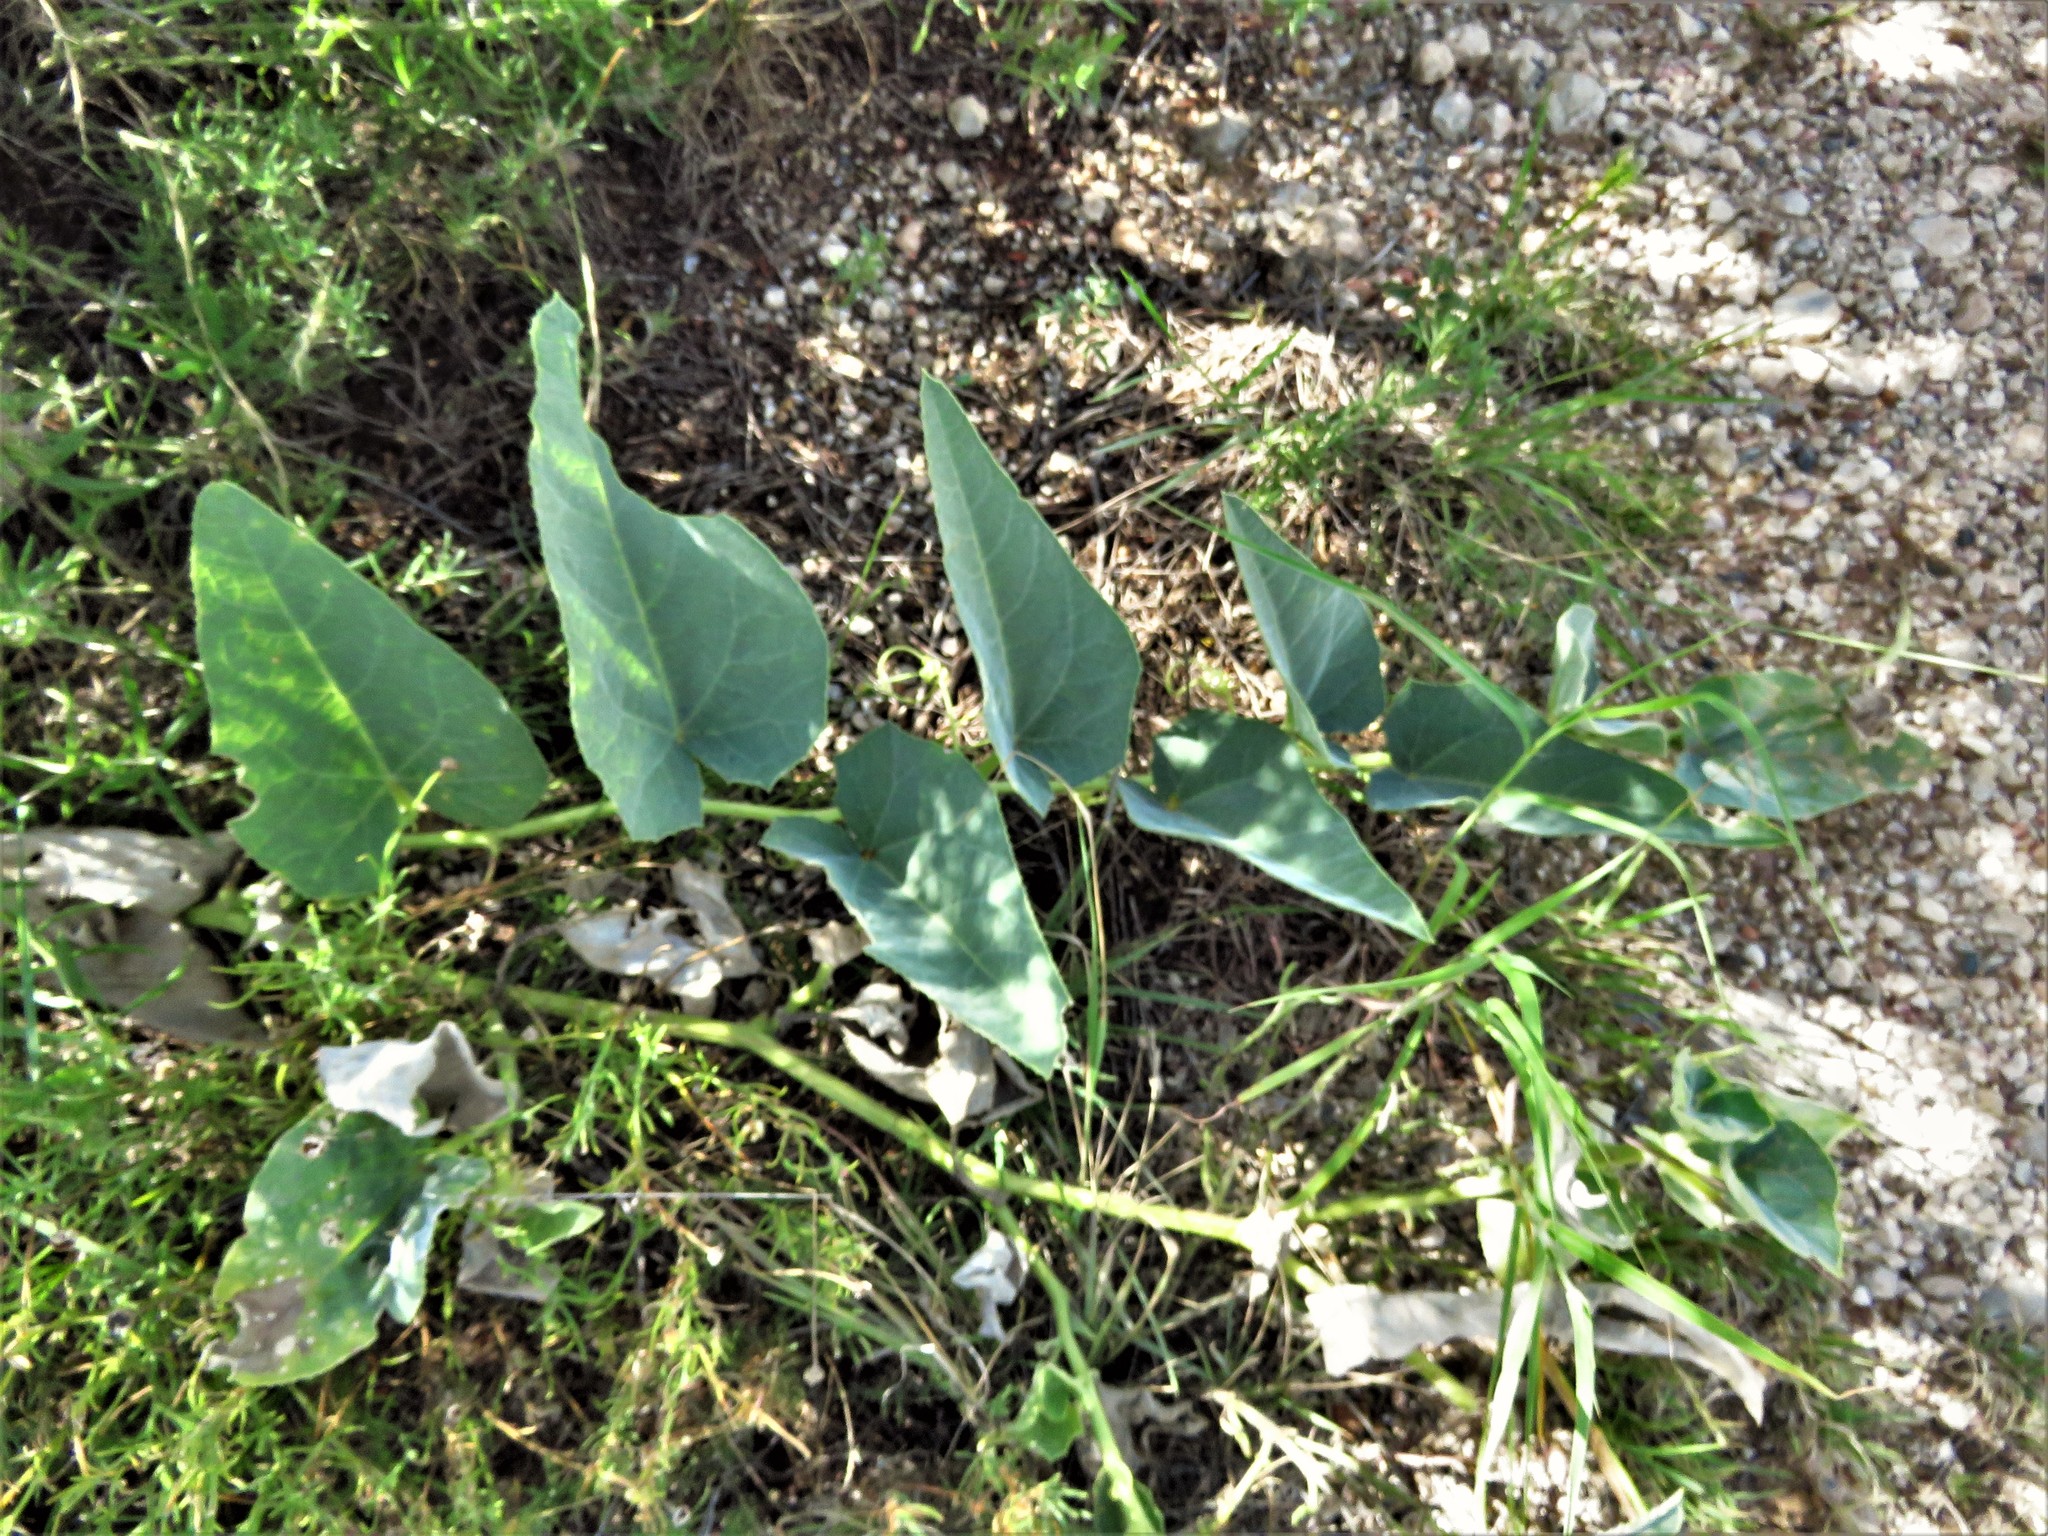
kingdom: Plantae
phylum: Tracheophyta
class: Magnoliopsida
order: Cucurbitales
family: Cucurbitaceae
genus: Cucurbita
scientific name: Cucurbita foetidissima
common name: Buffalo gourd
